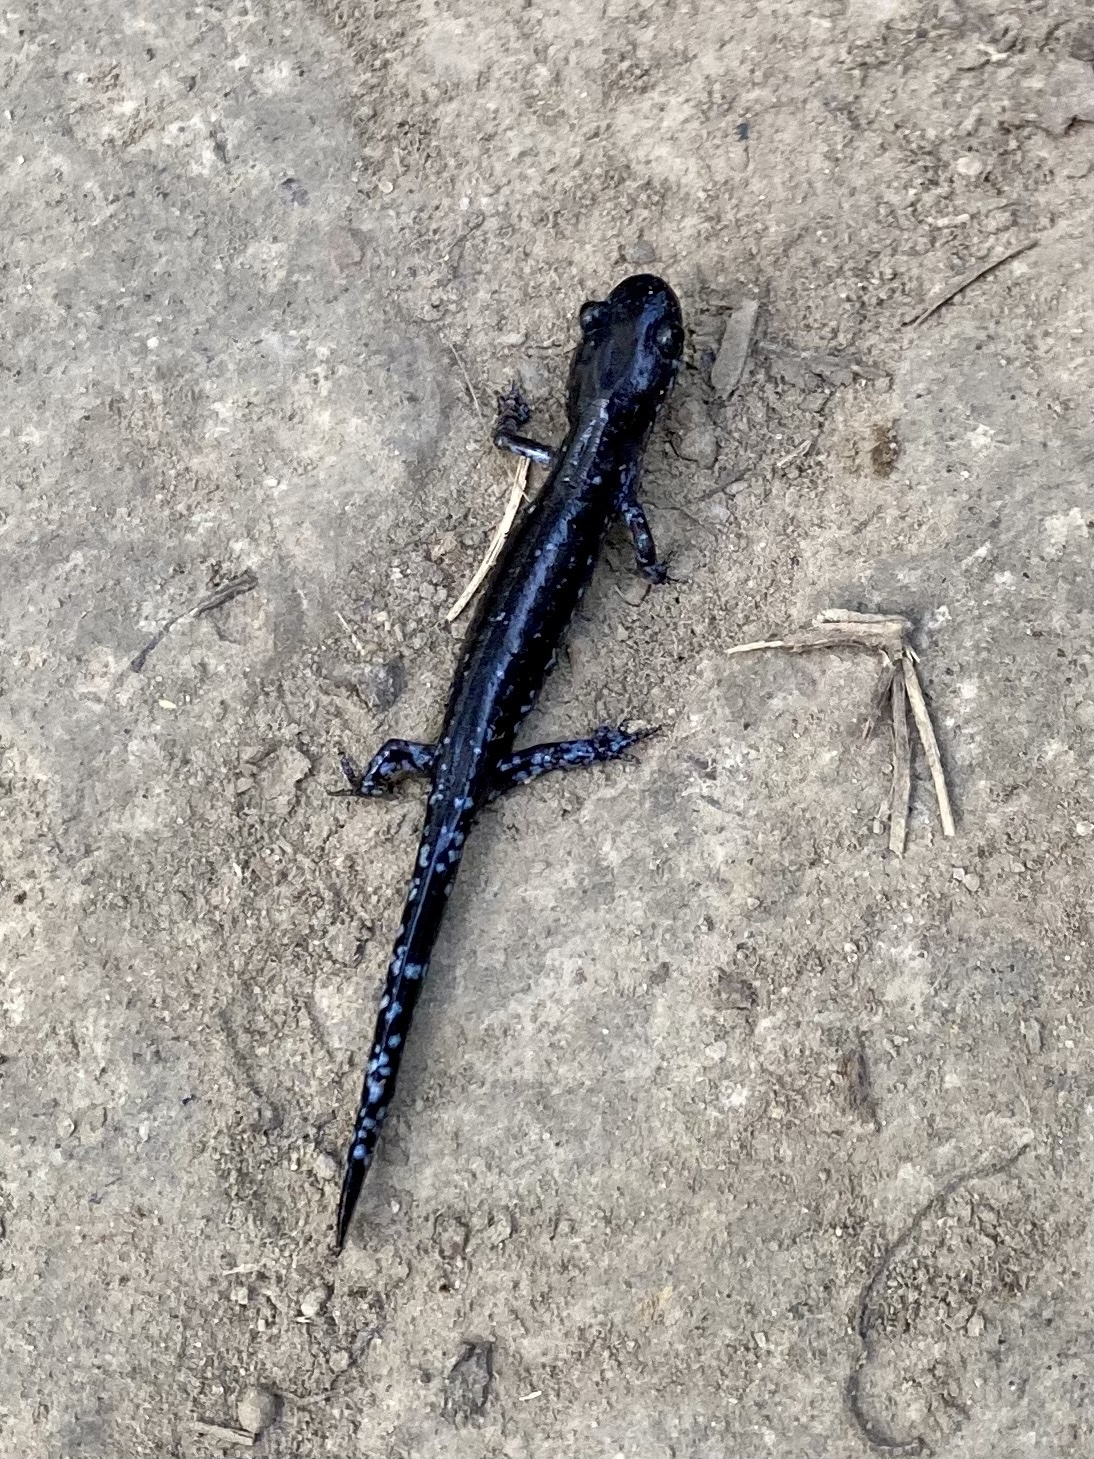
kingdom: Animalia
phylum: Chordata
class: Amphibia
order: Caudata
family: Ambystomatidae
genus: Ambystoma
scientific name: Ambystoma laterale
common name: Blue-spotted salamander
